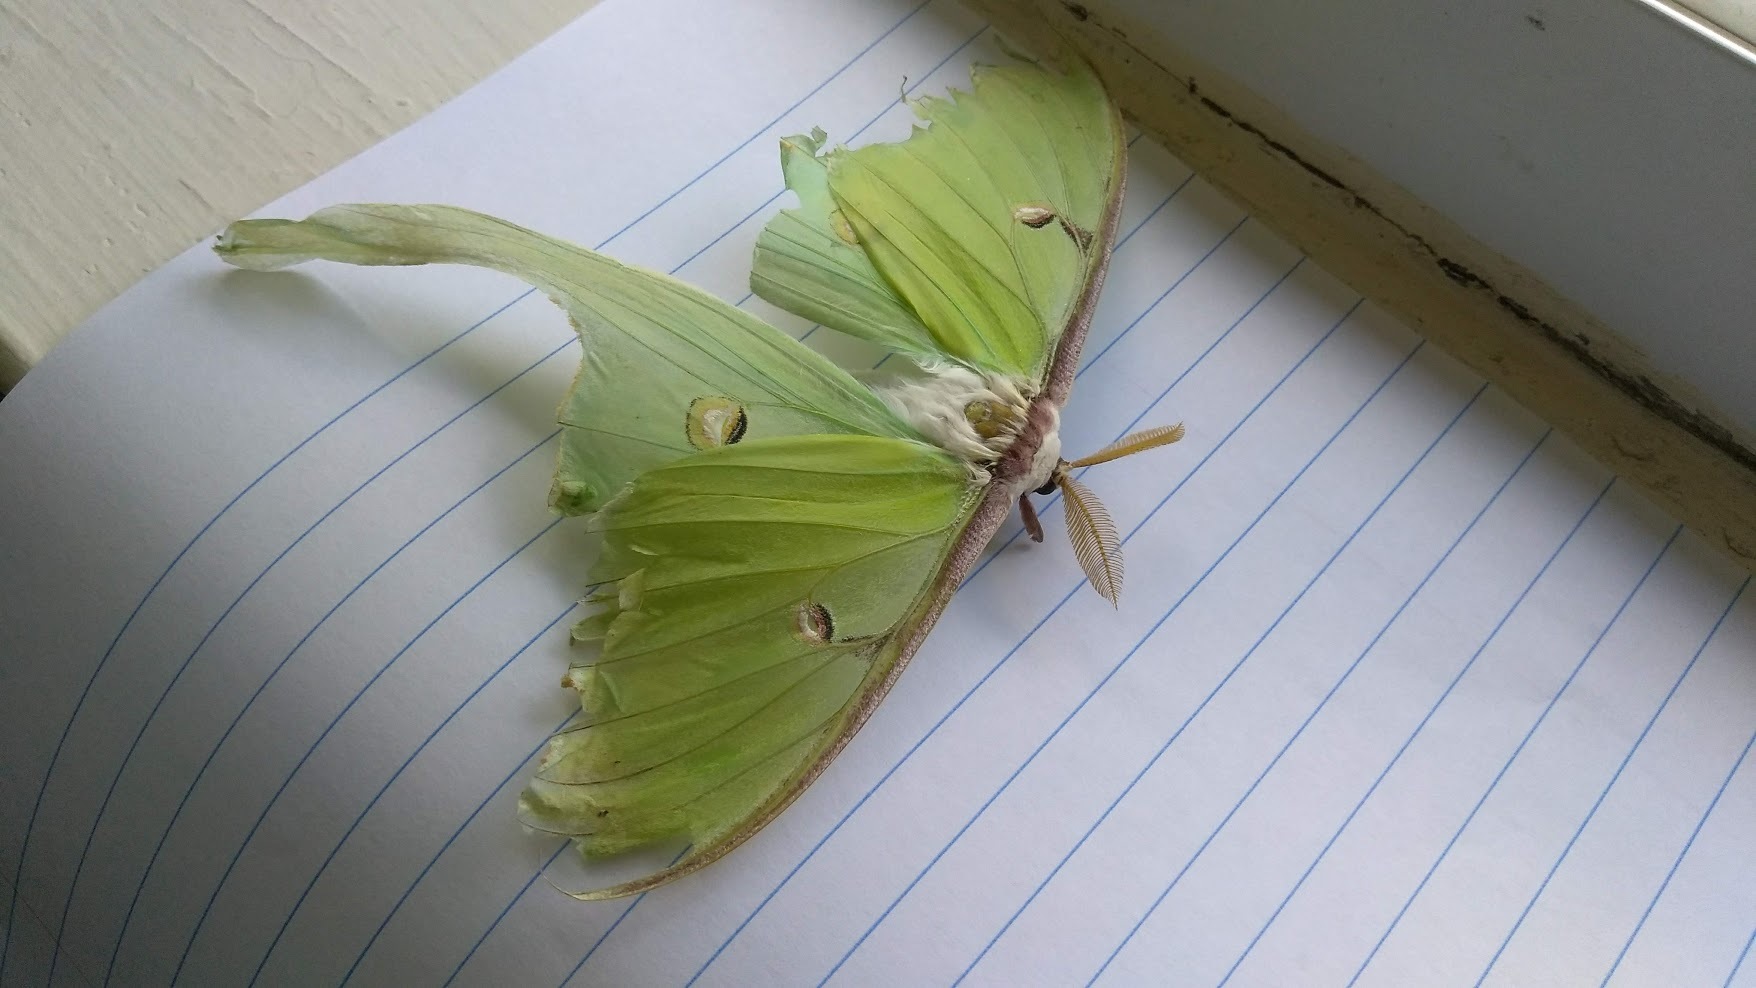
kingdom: Animalia
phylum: Arthropoda
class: Insecta
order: Lepidoptera
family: Saturniidae
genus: Actias
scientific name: Actias luna
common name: Luna moth
